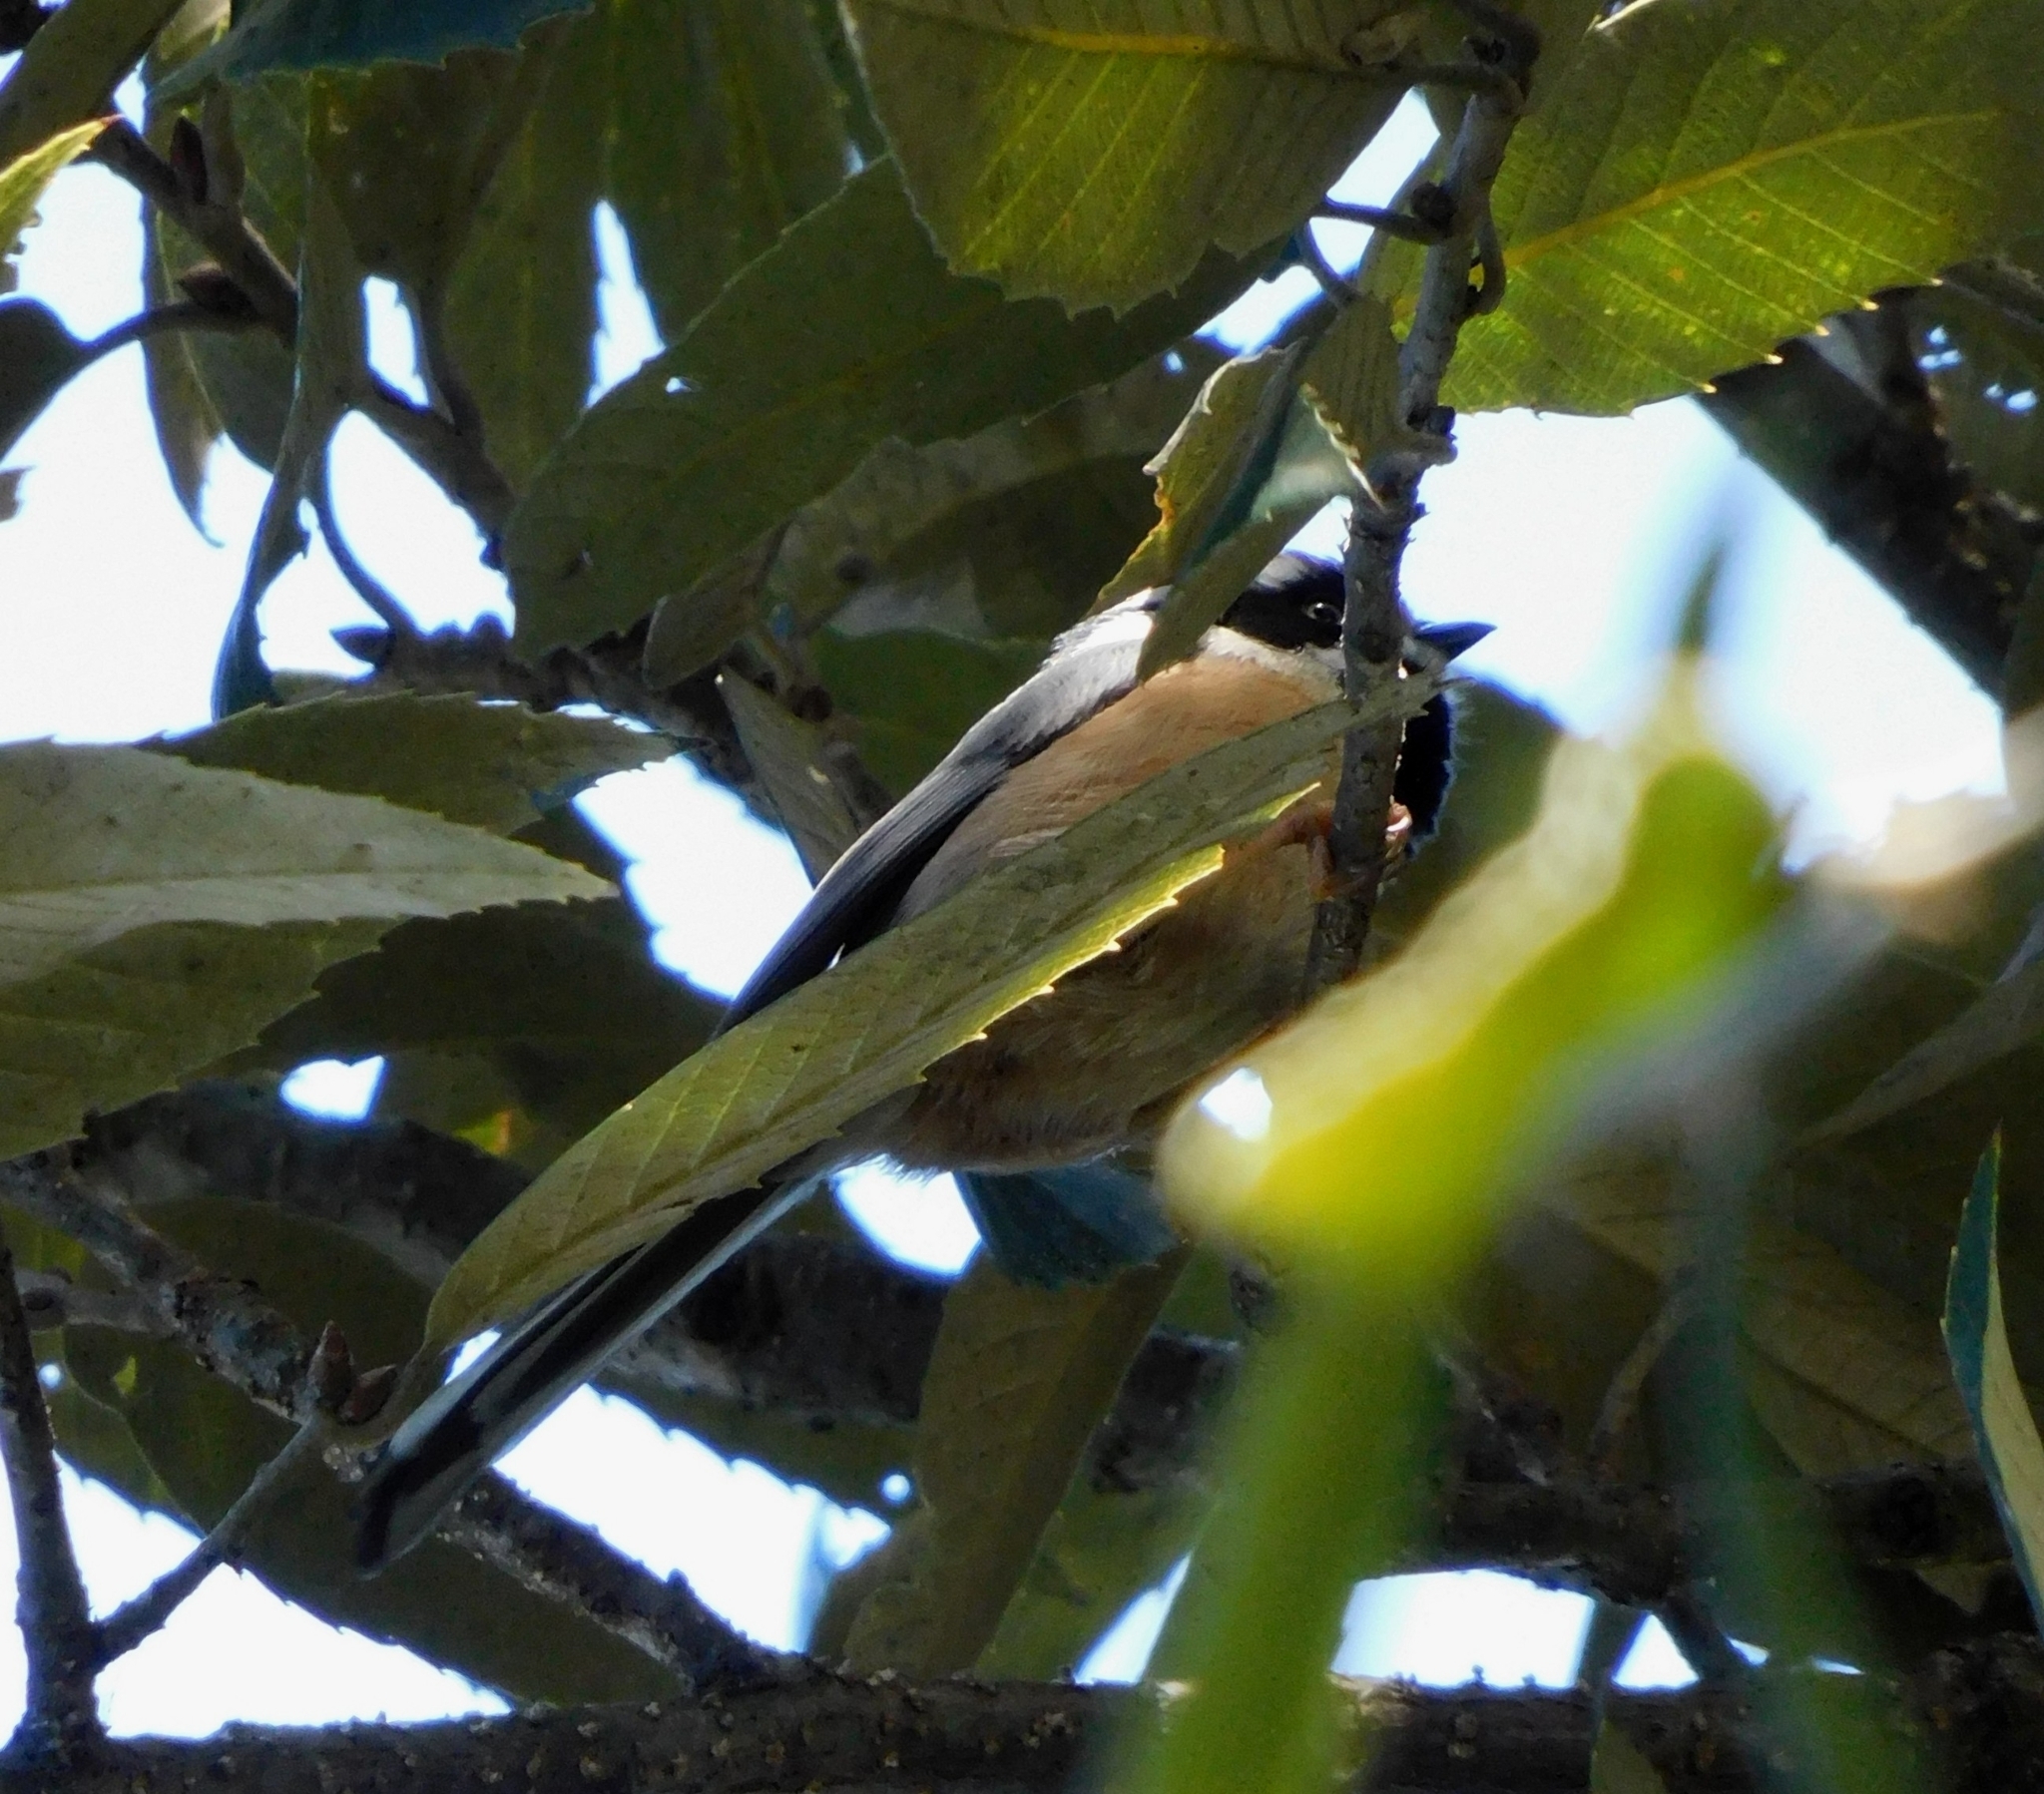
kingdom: Animalia
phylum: Chordata
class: Aves
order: Passeriformes
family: Aegithalidae
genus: Aegithalos
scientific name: Aegithalos concinnus
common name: Black-throated bushtit
